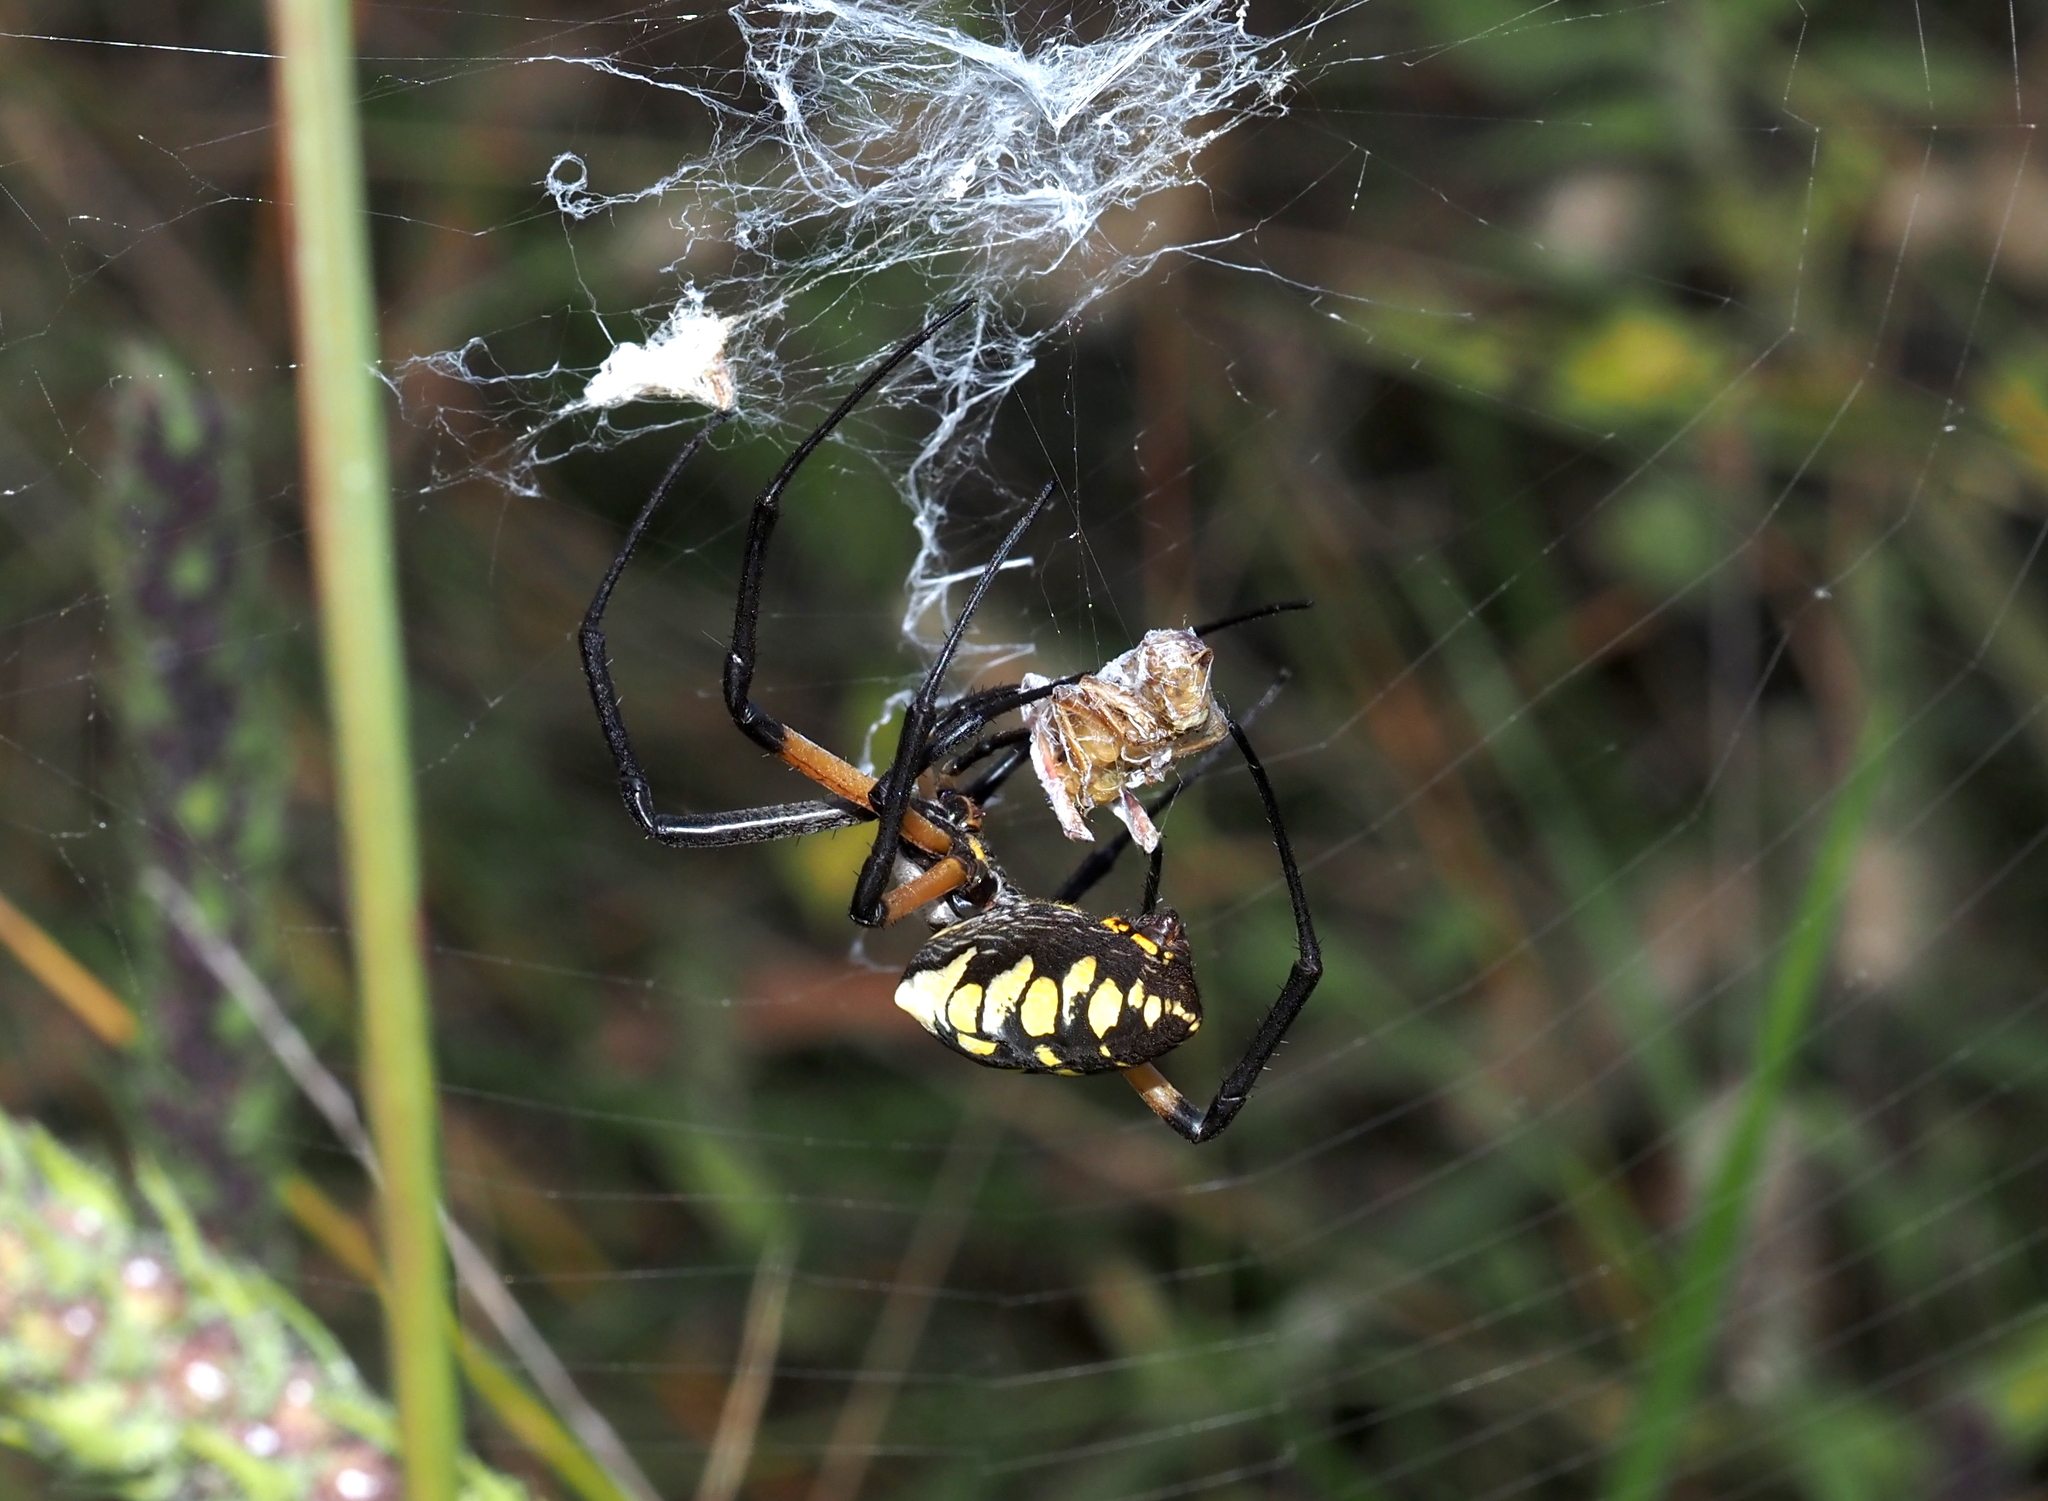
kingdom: Animalia
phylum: Arthropoda
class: Arachnida
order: Araneae
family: Araneidae
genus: Argiope
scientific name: Argiope aurantia
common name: Orb weavers
